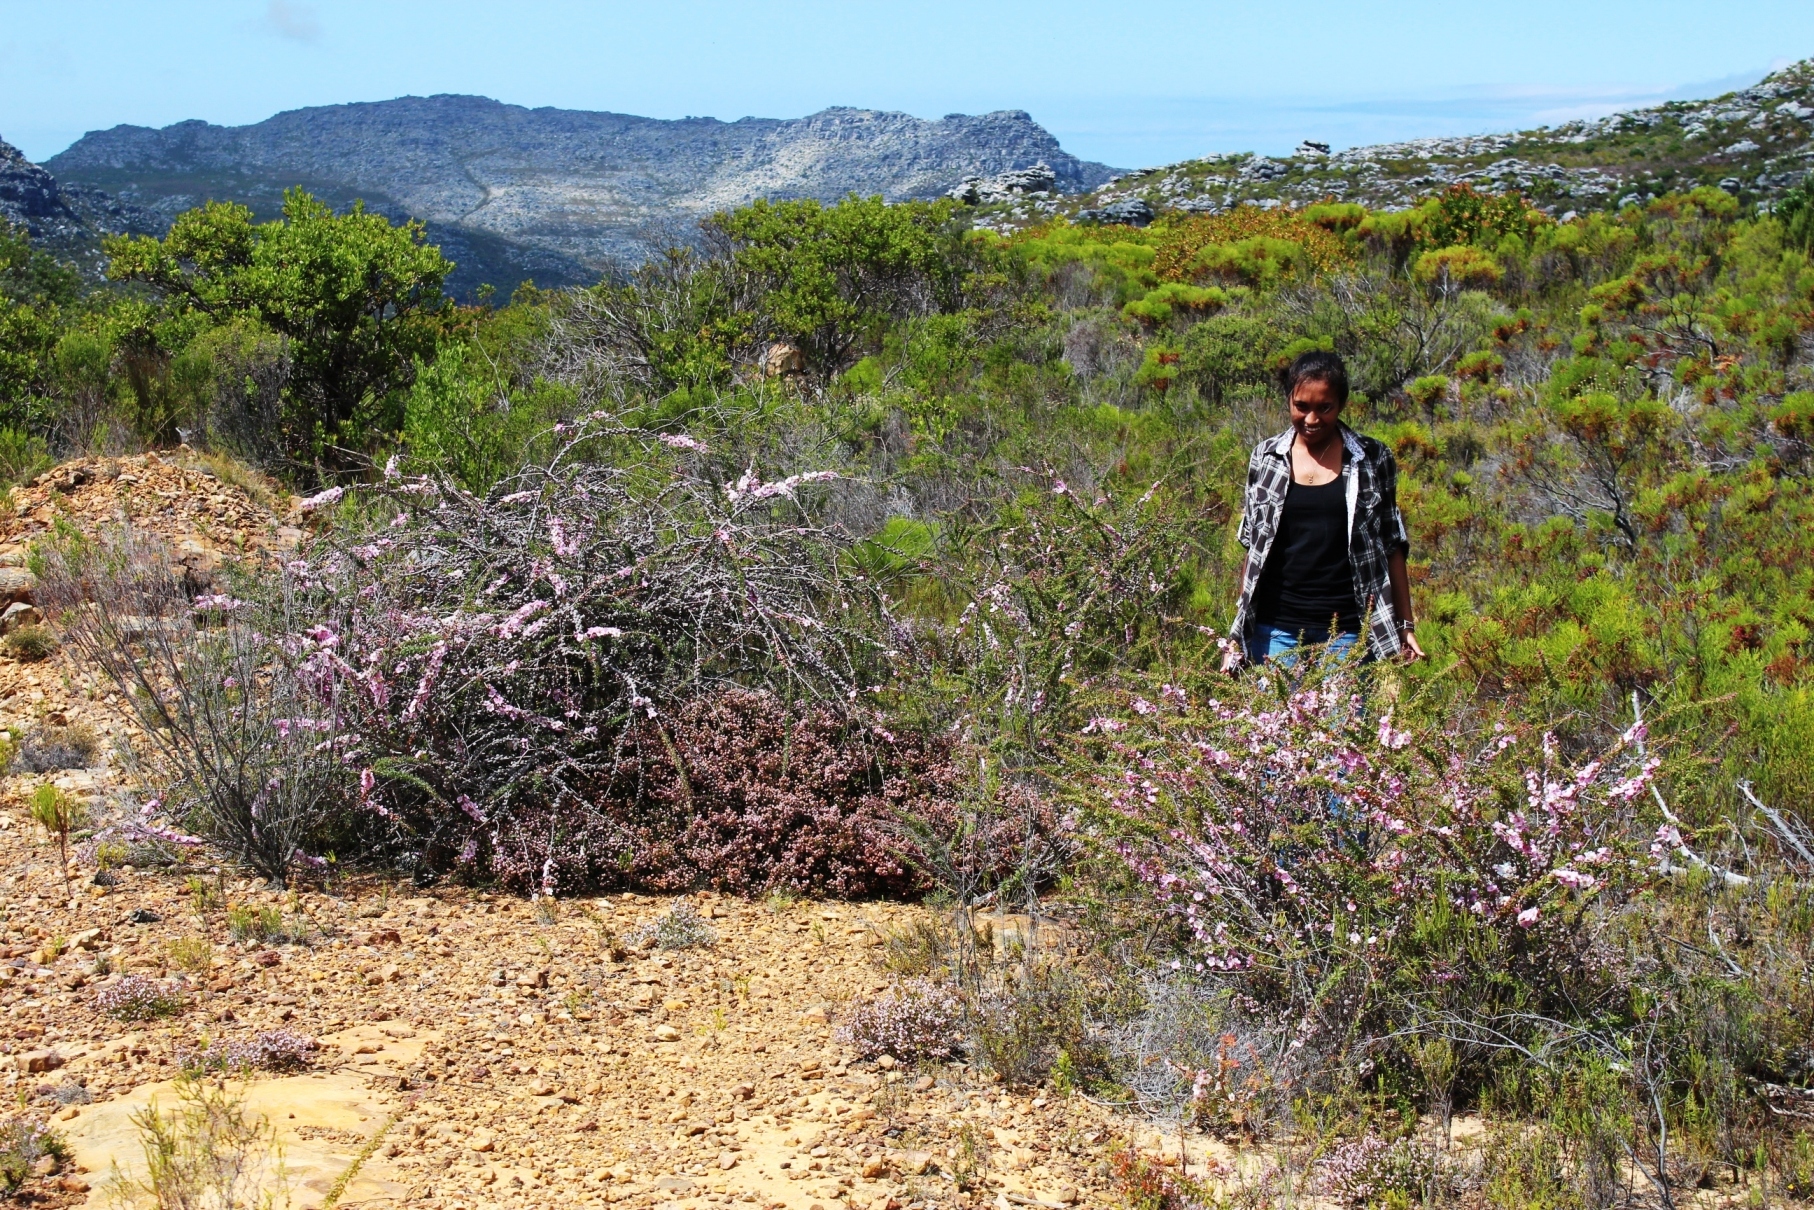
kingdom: Plantae
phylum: Tracheophyta
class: Magnoliopsida
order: Myrtales
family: Myrtaceae
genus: Leptospermum
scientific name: Leptospermum squarrosum
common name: Peach-blossom teatree
